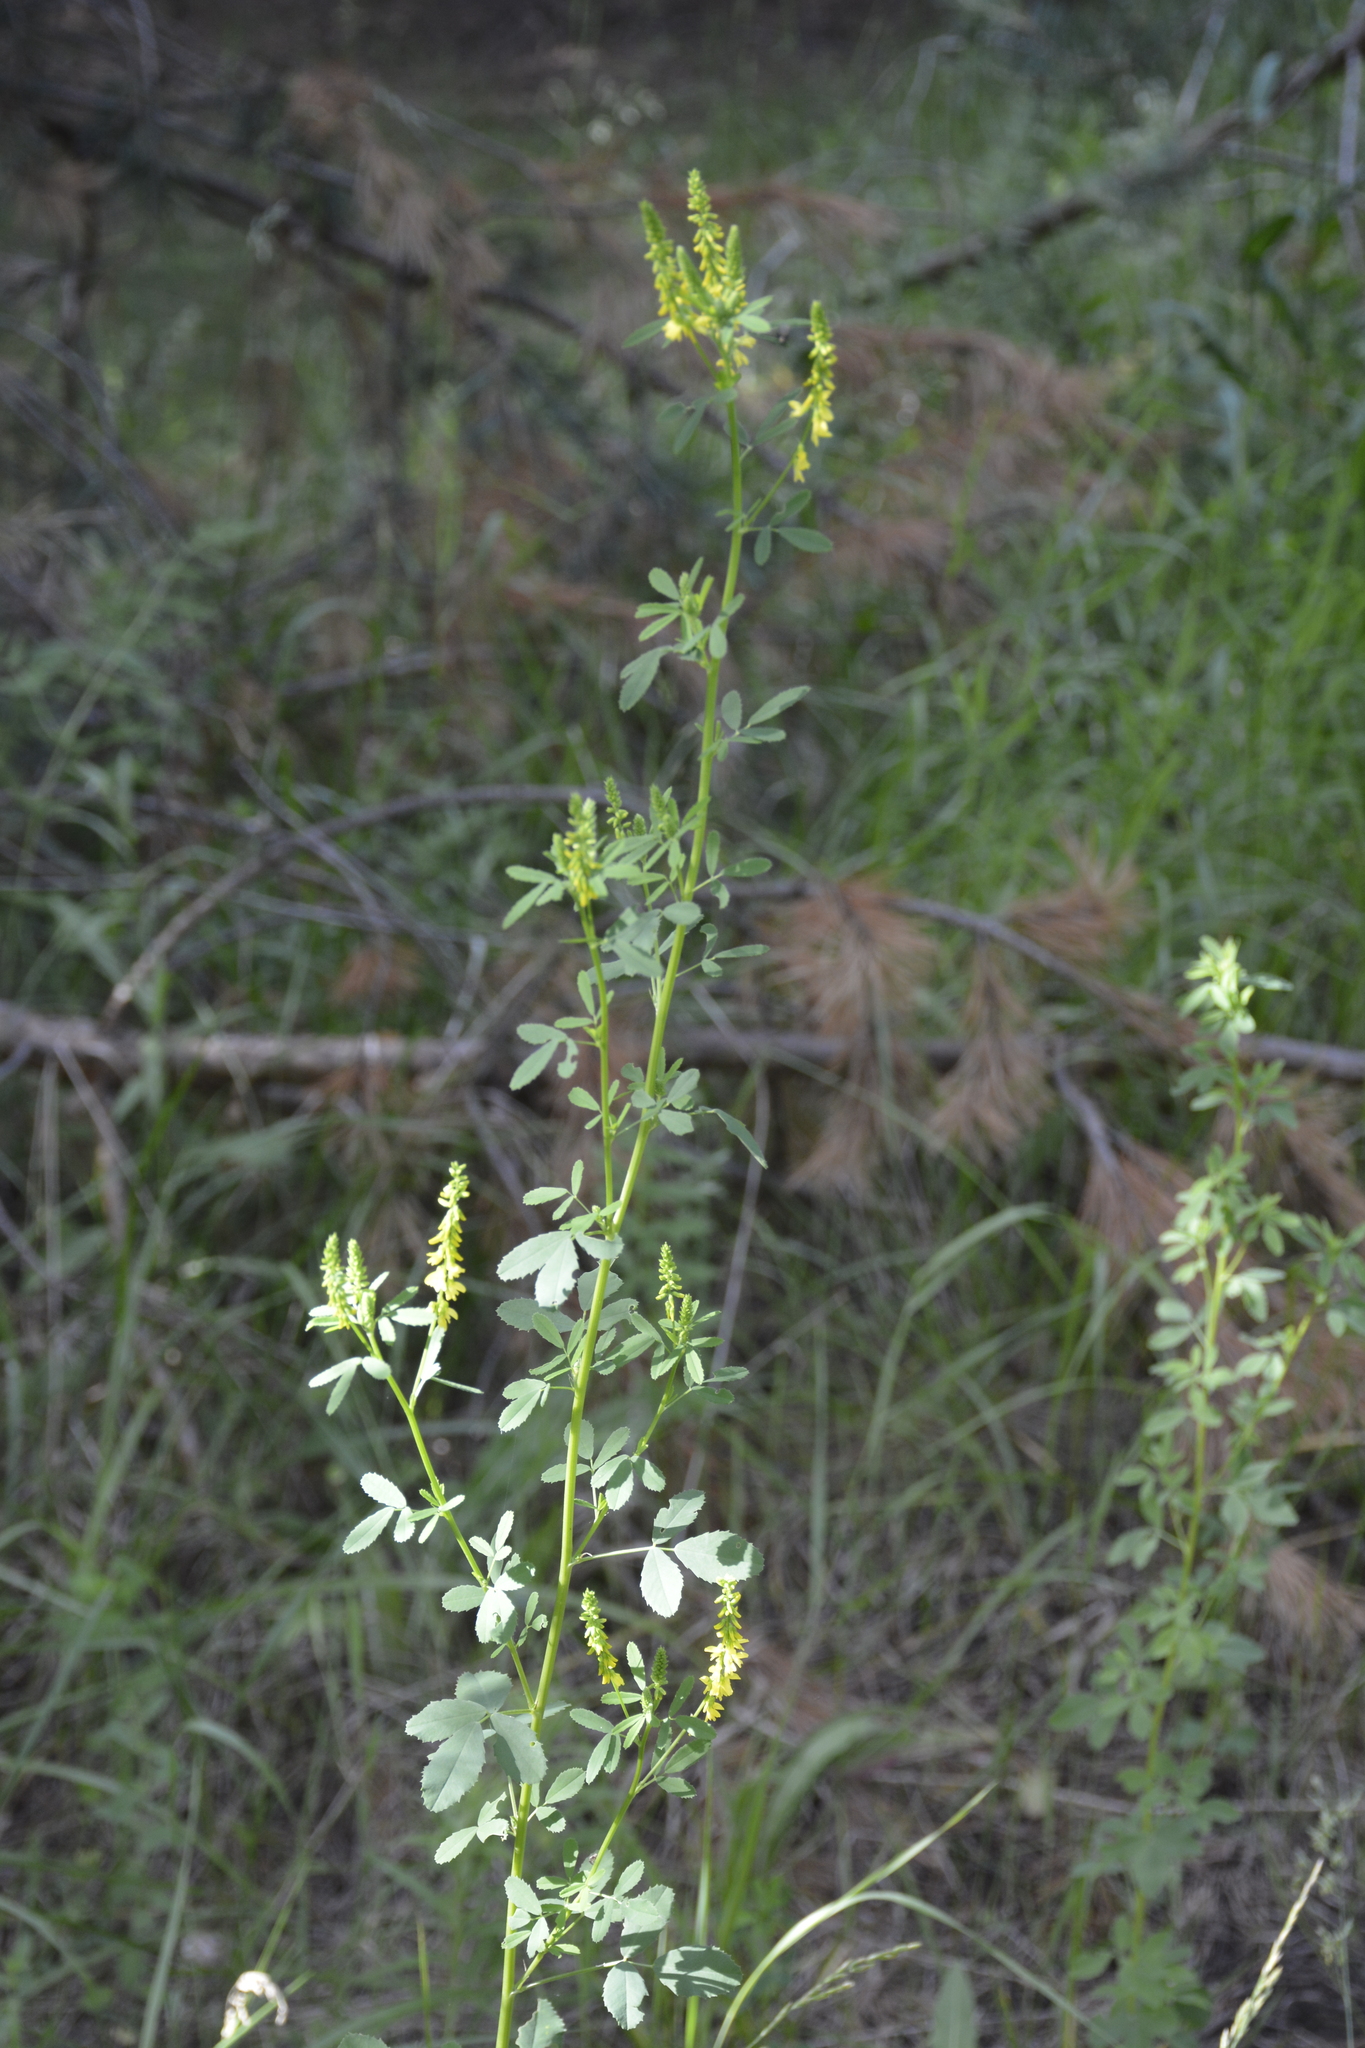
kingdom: Plantae
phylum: Tracheophyta
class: Magnoliopsida
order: Fabales
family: Fabaceae
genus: Melilotus
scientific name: Melilotus officinalis
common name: Sweetclover
